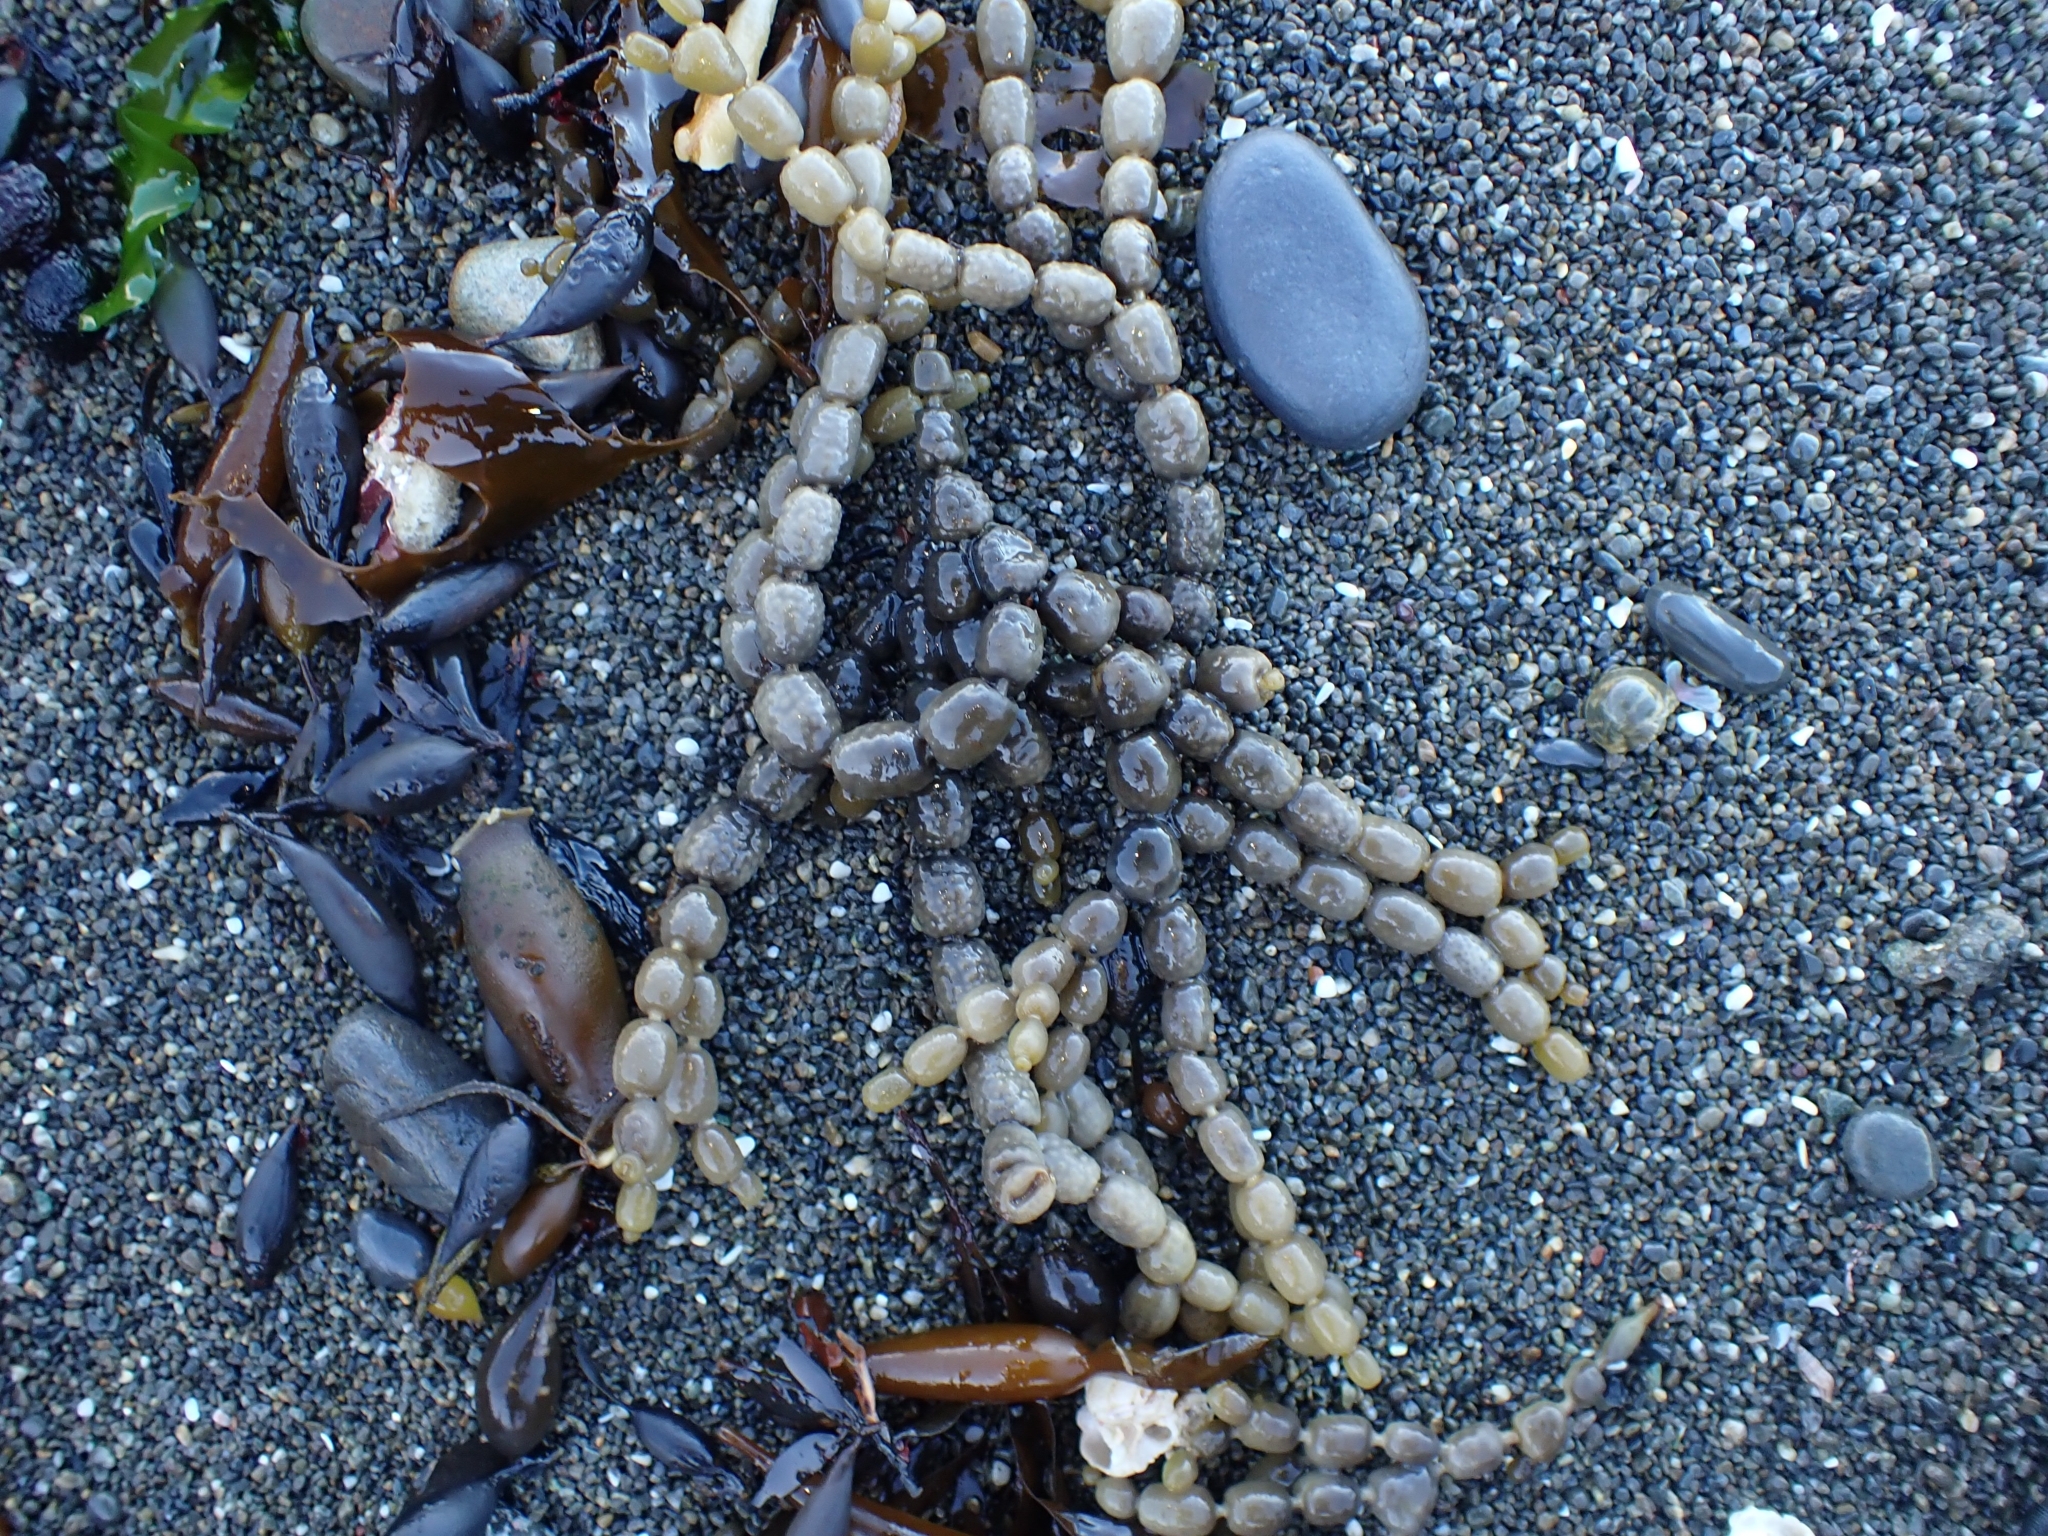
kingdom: Chromista
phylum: Ochrophyta
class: Phaeophyceae
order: Fucales
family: Hormosiraceae
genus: Hormosira
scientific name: Hormosira banksii
